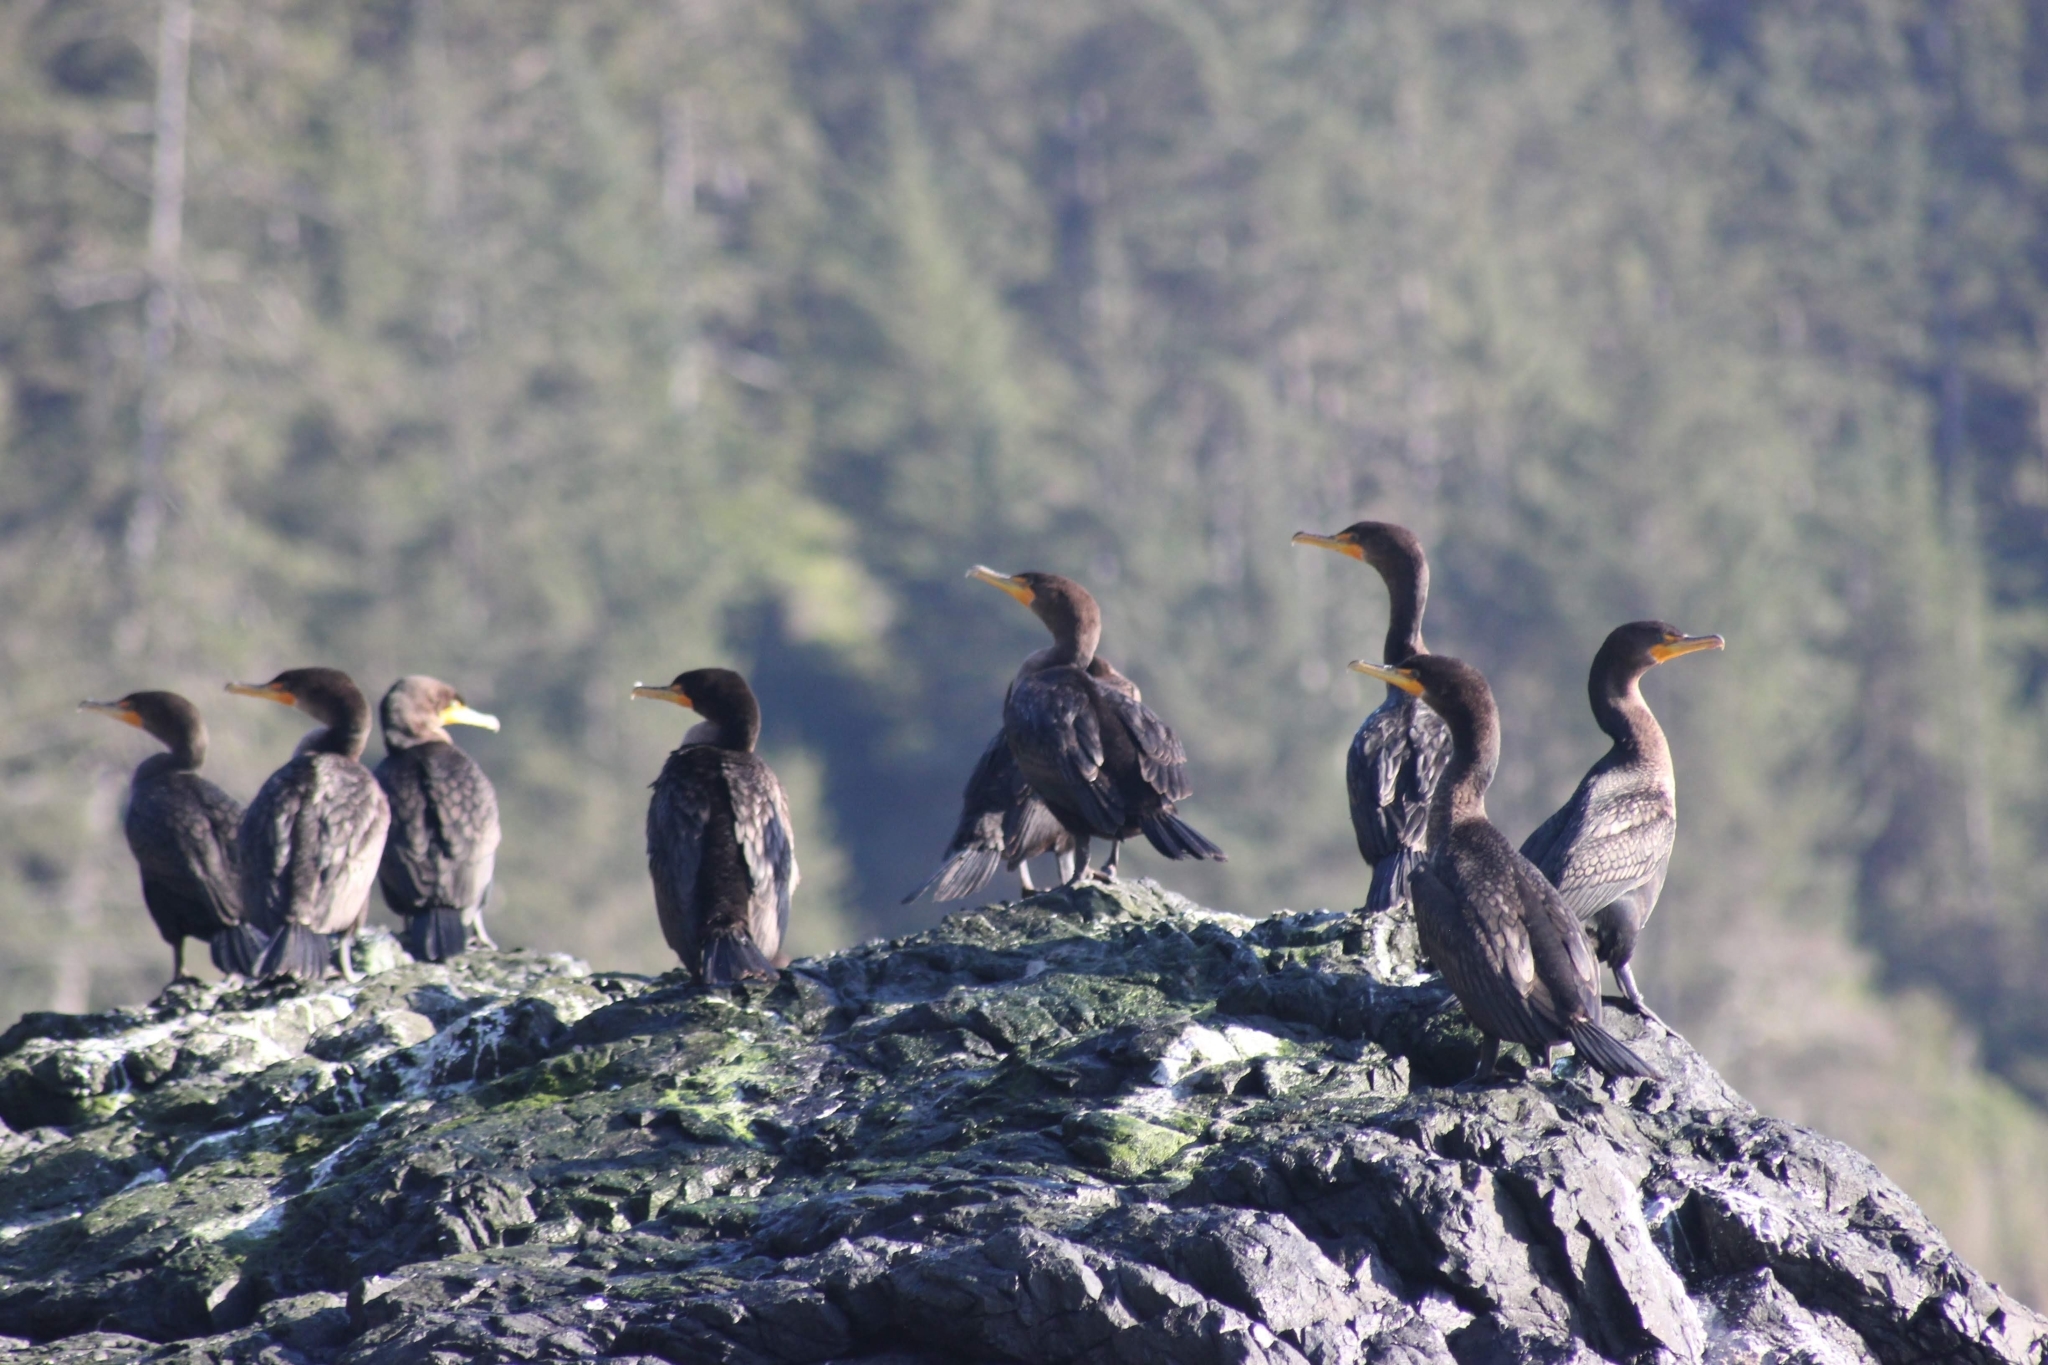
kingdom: Animalia
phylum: Chordata
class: Aves
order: Suliformes
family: Phalacrocoracidae
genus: Phalacrocorax
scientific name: Phalacrocorax auritus
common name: Double-crested cormorant
